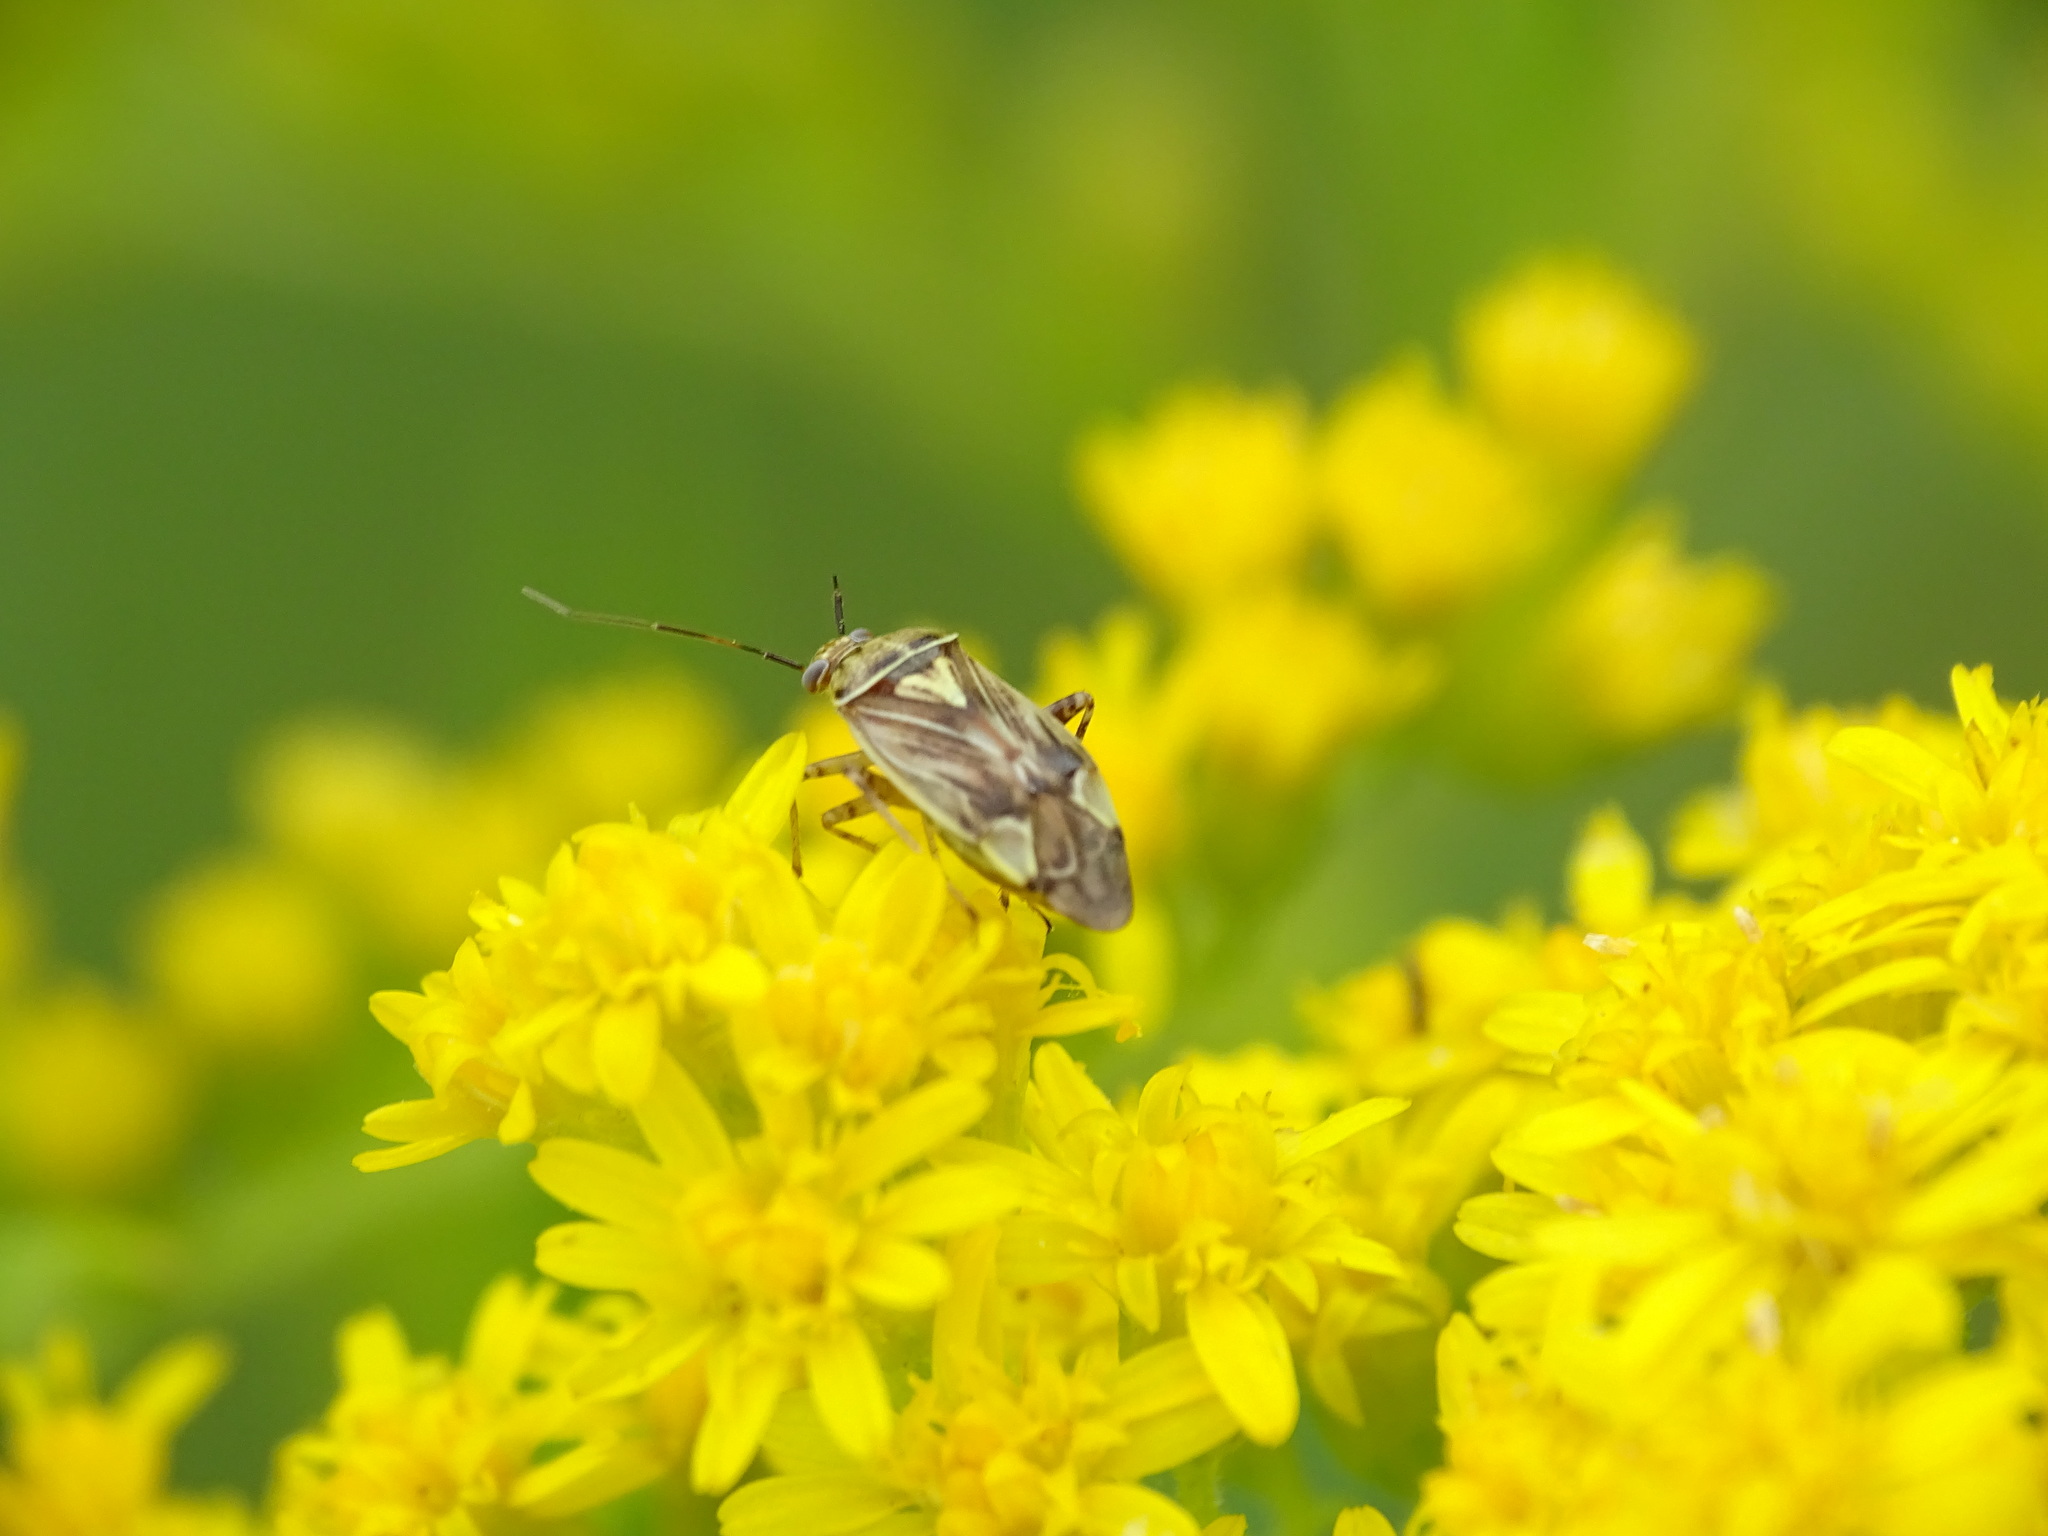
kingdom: Animalia
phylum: Arthropoda
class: Insecta
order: Hemiptera
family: Miridae
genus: Lygus
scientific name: Lygus lineolaris
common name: North american tarnished plant bug
